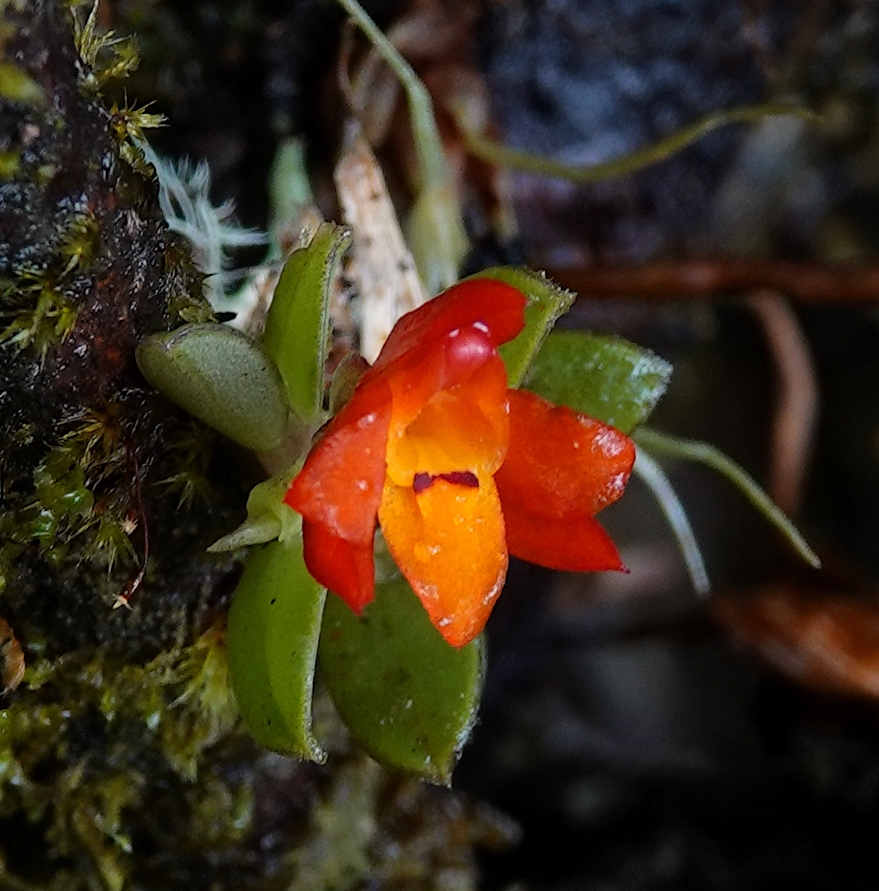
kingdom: Plantae
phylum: Tracheophyta
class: Liliopsida
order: Asparagales
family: Orchidaceae
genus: Fernandezia
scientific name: Fernandezia sanguinea
